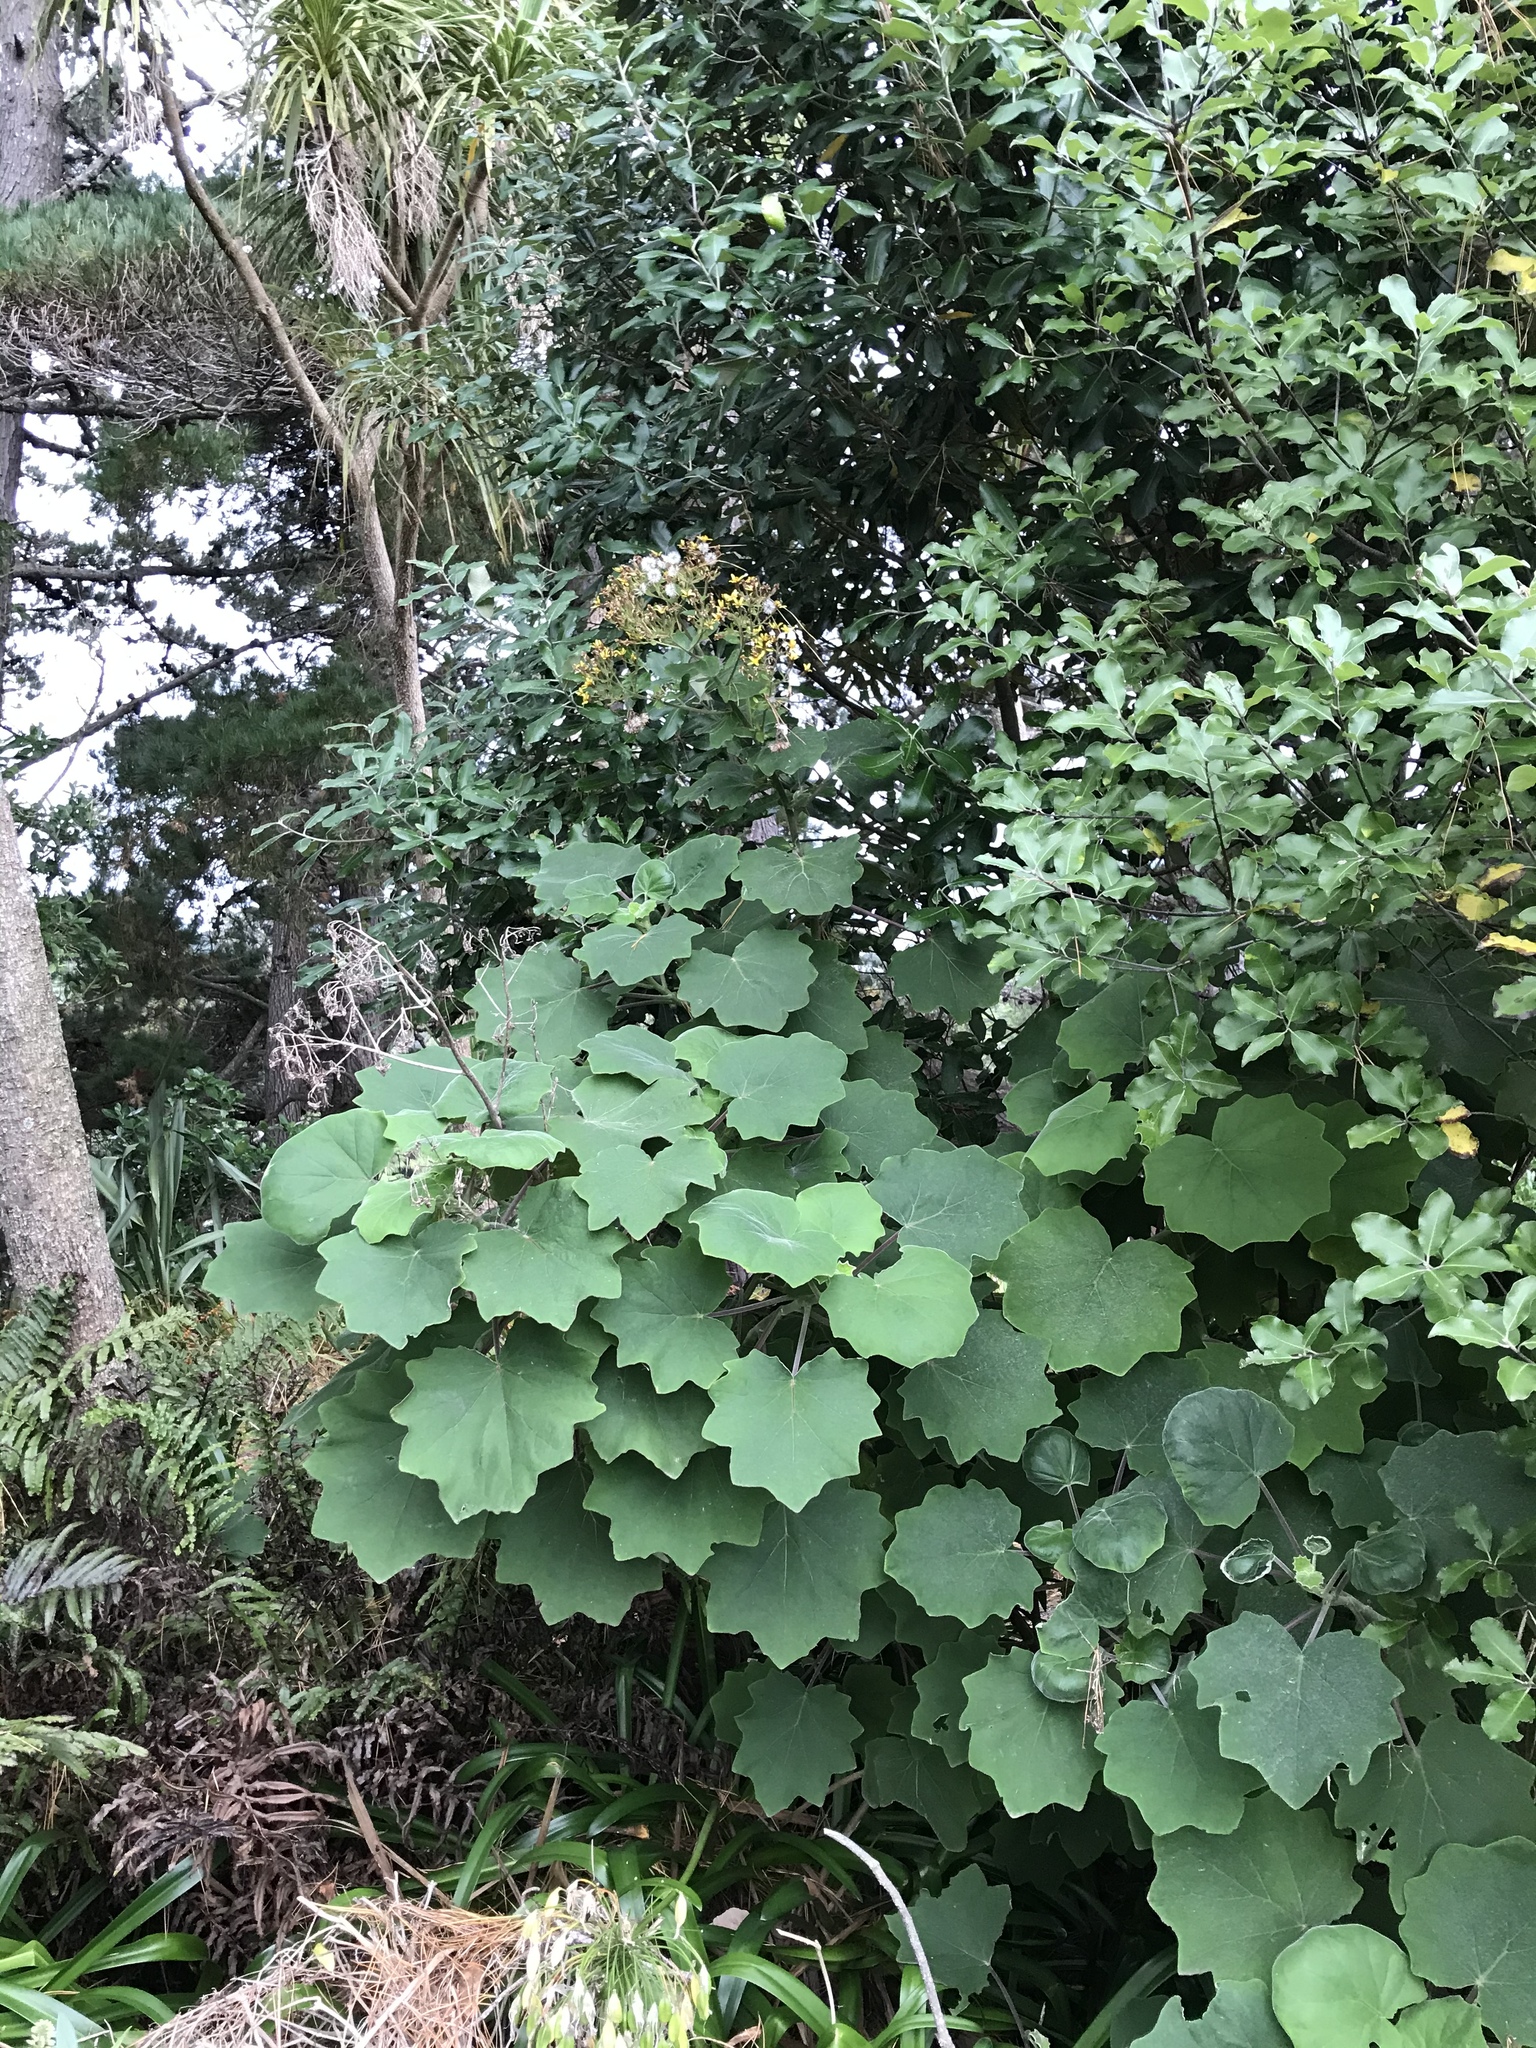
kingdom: Plantae
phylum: Tracheophyta
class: Magnoliopsida
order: Asterales
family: Asteraceae
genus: Roldana
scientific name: Roldana petasitis
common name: California-geranium
